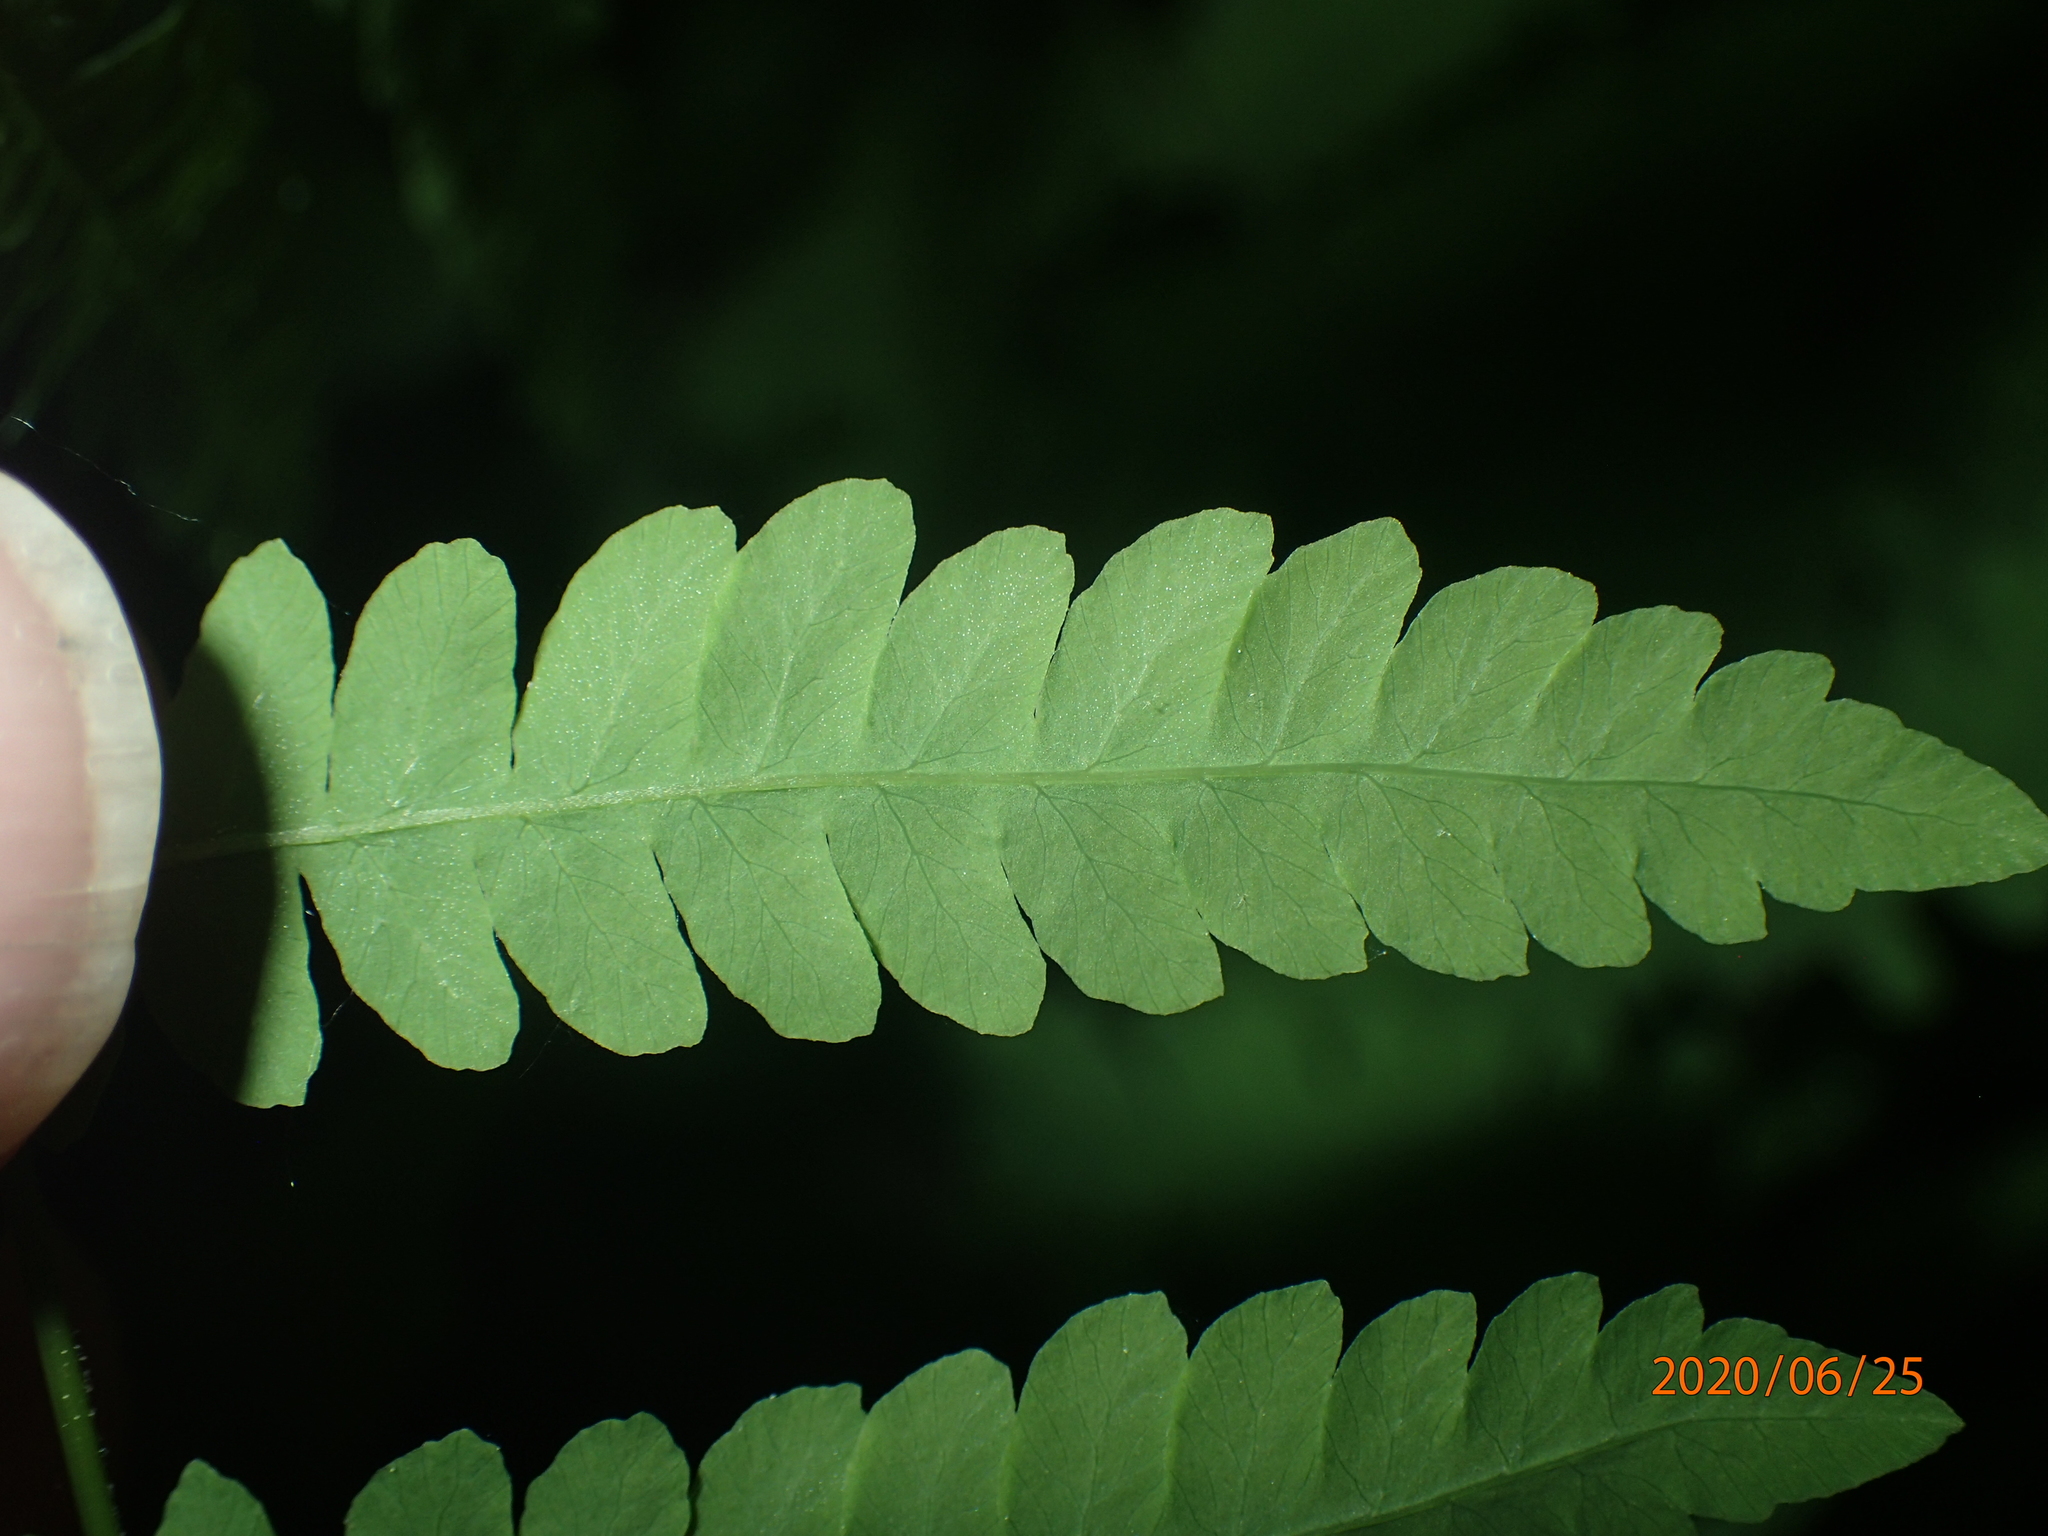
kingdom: Plantae
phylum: Tracheophyta
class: Polypodiopsida
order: Polypodiales
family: Thelypteridaceae
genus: Thelypteris
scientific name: Thelypteris palustris
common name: Marsh fern
